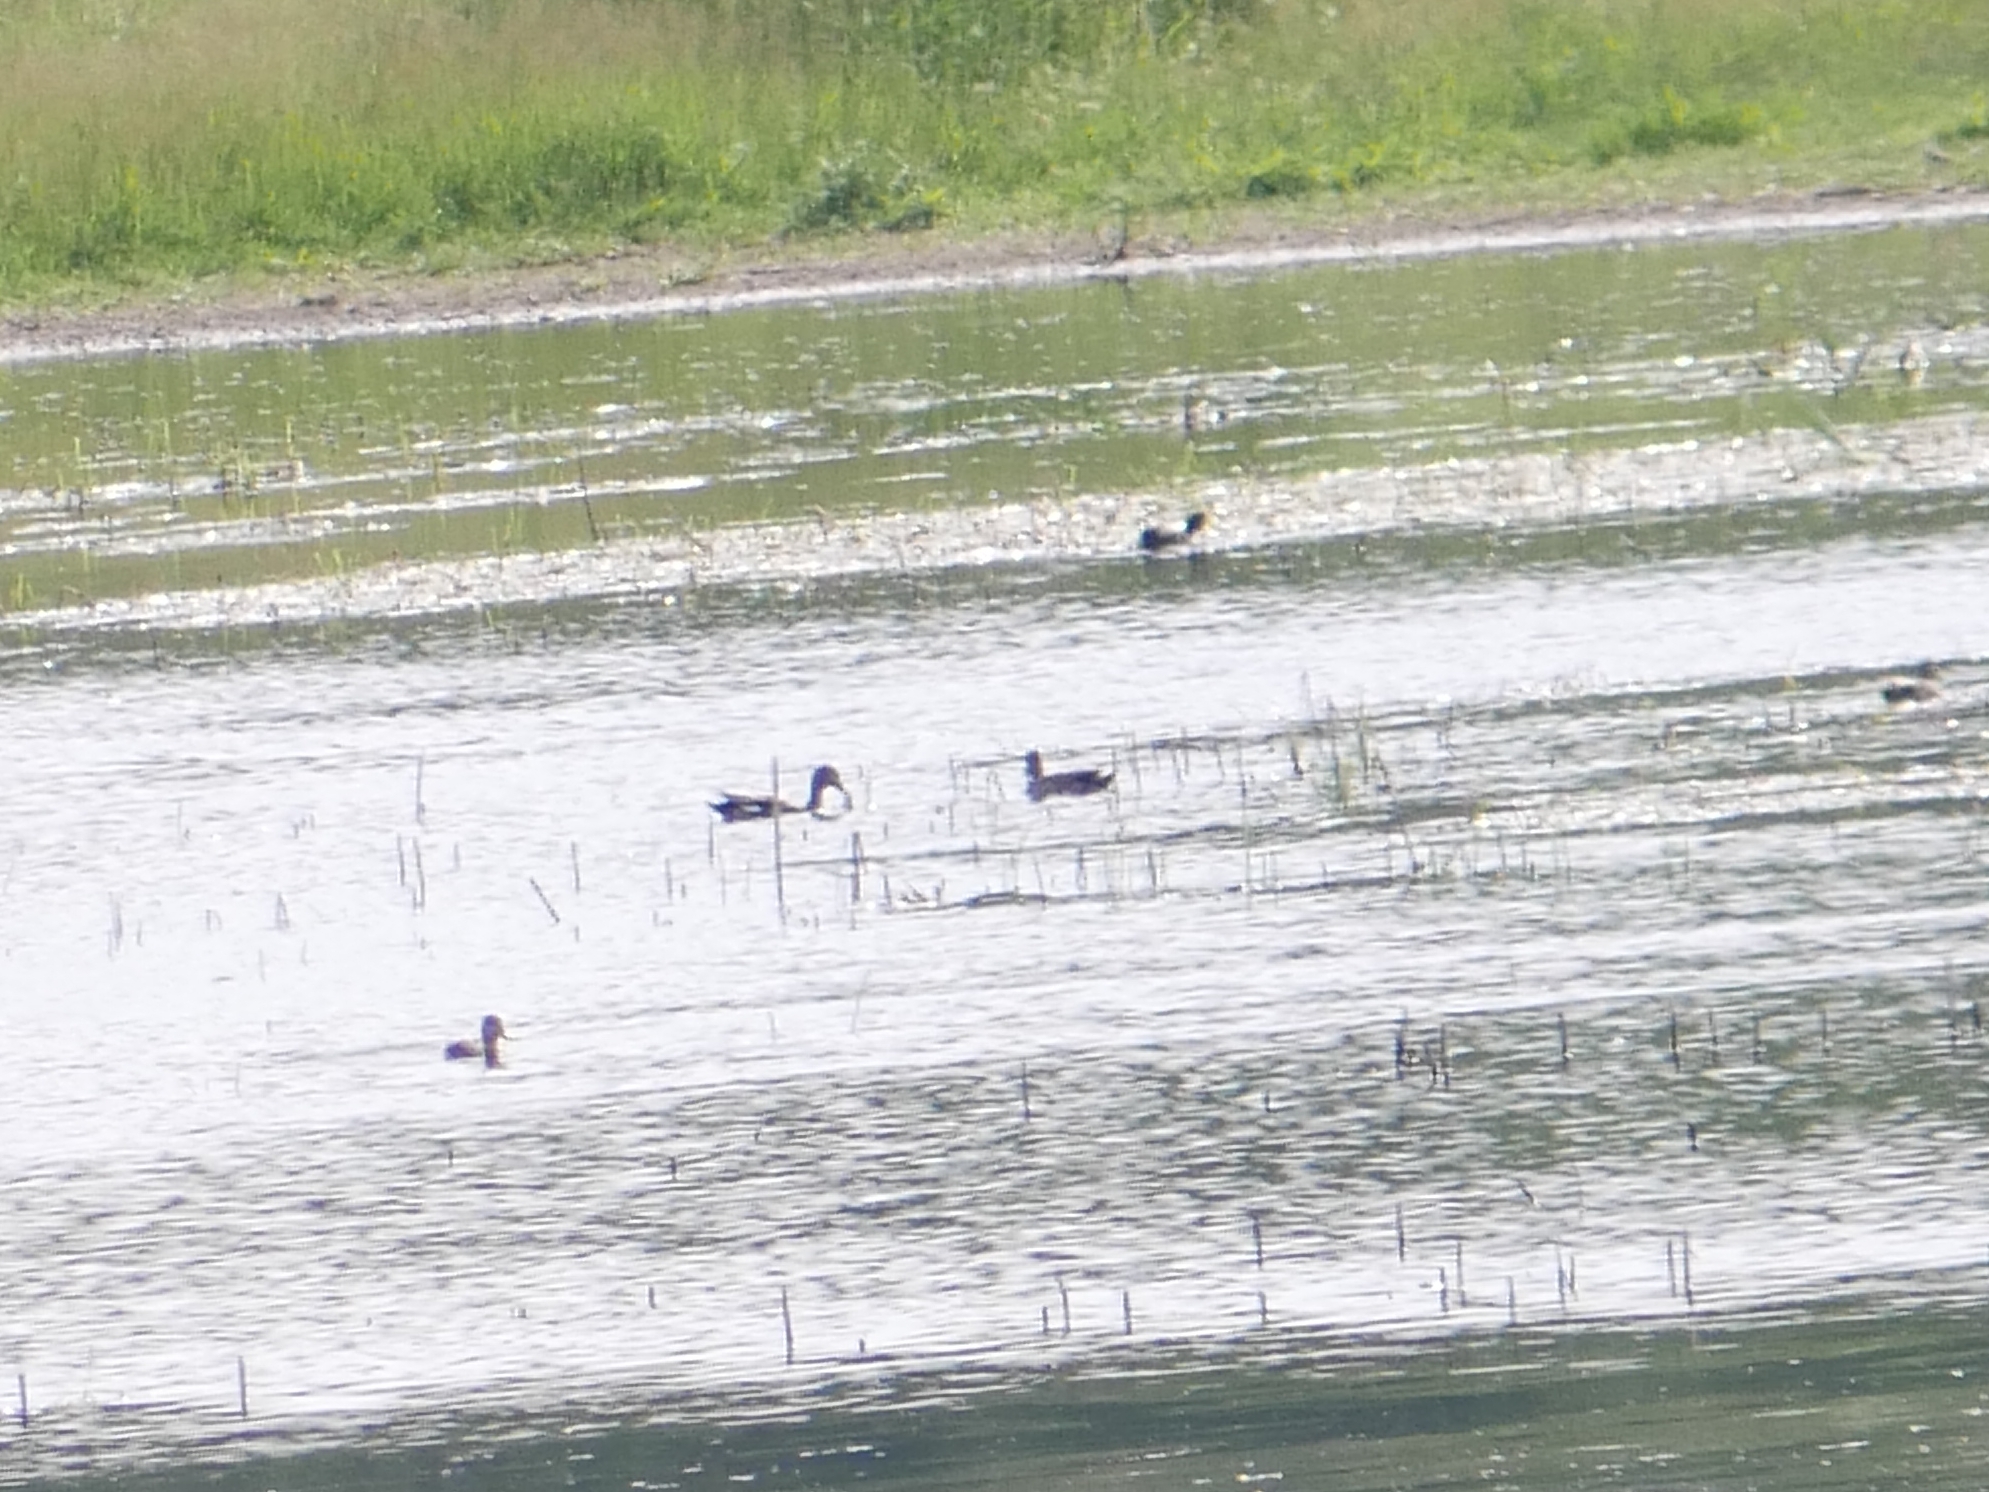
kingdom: Animalia
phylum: Chordata
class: Aves
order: Anseriformes
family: Anatidae
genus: Mareca
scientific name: Mareca strepera
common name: Gadwall
